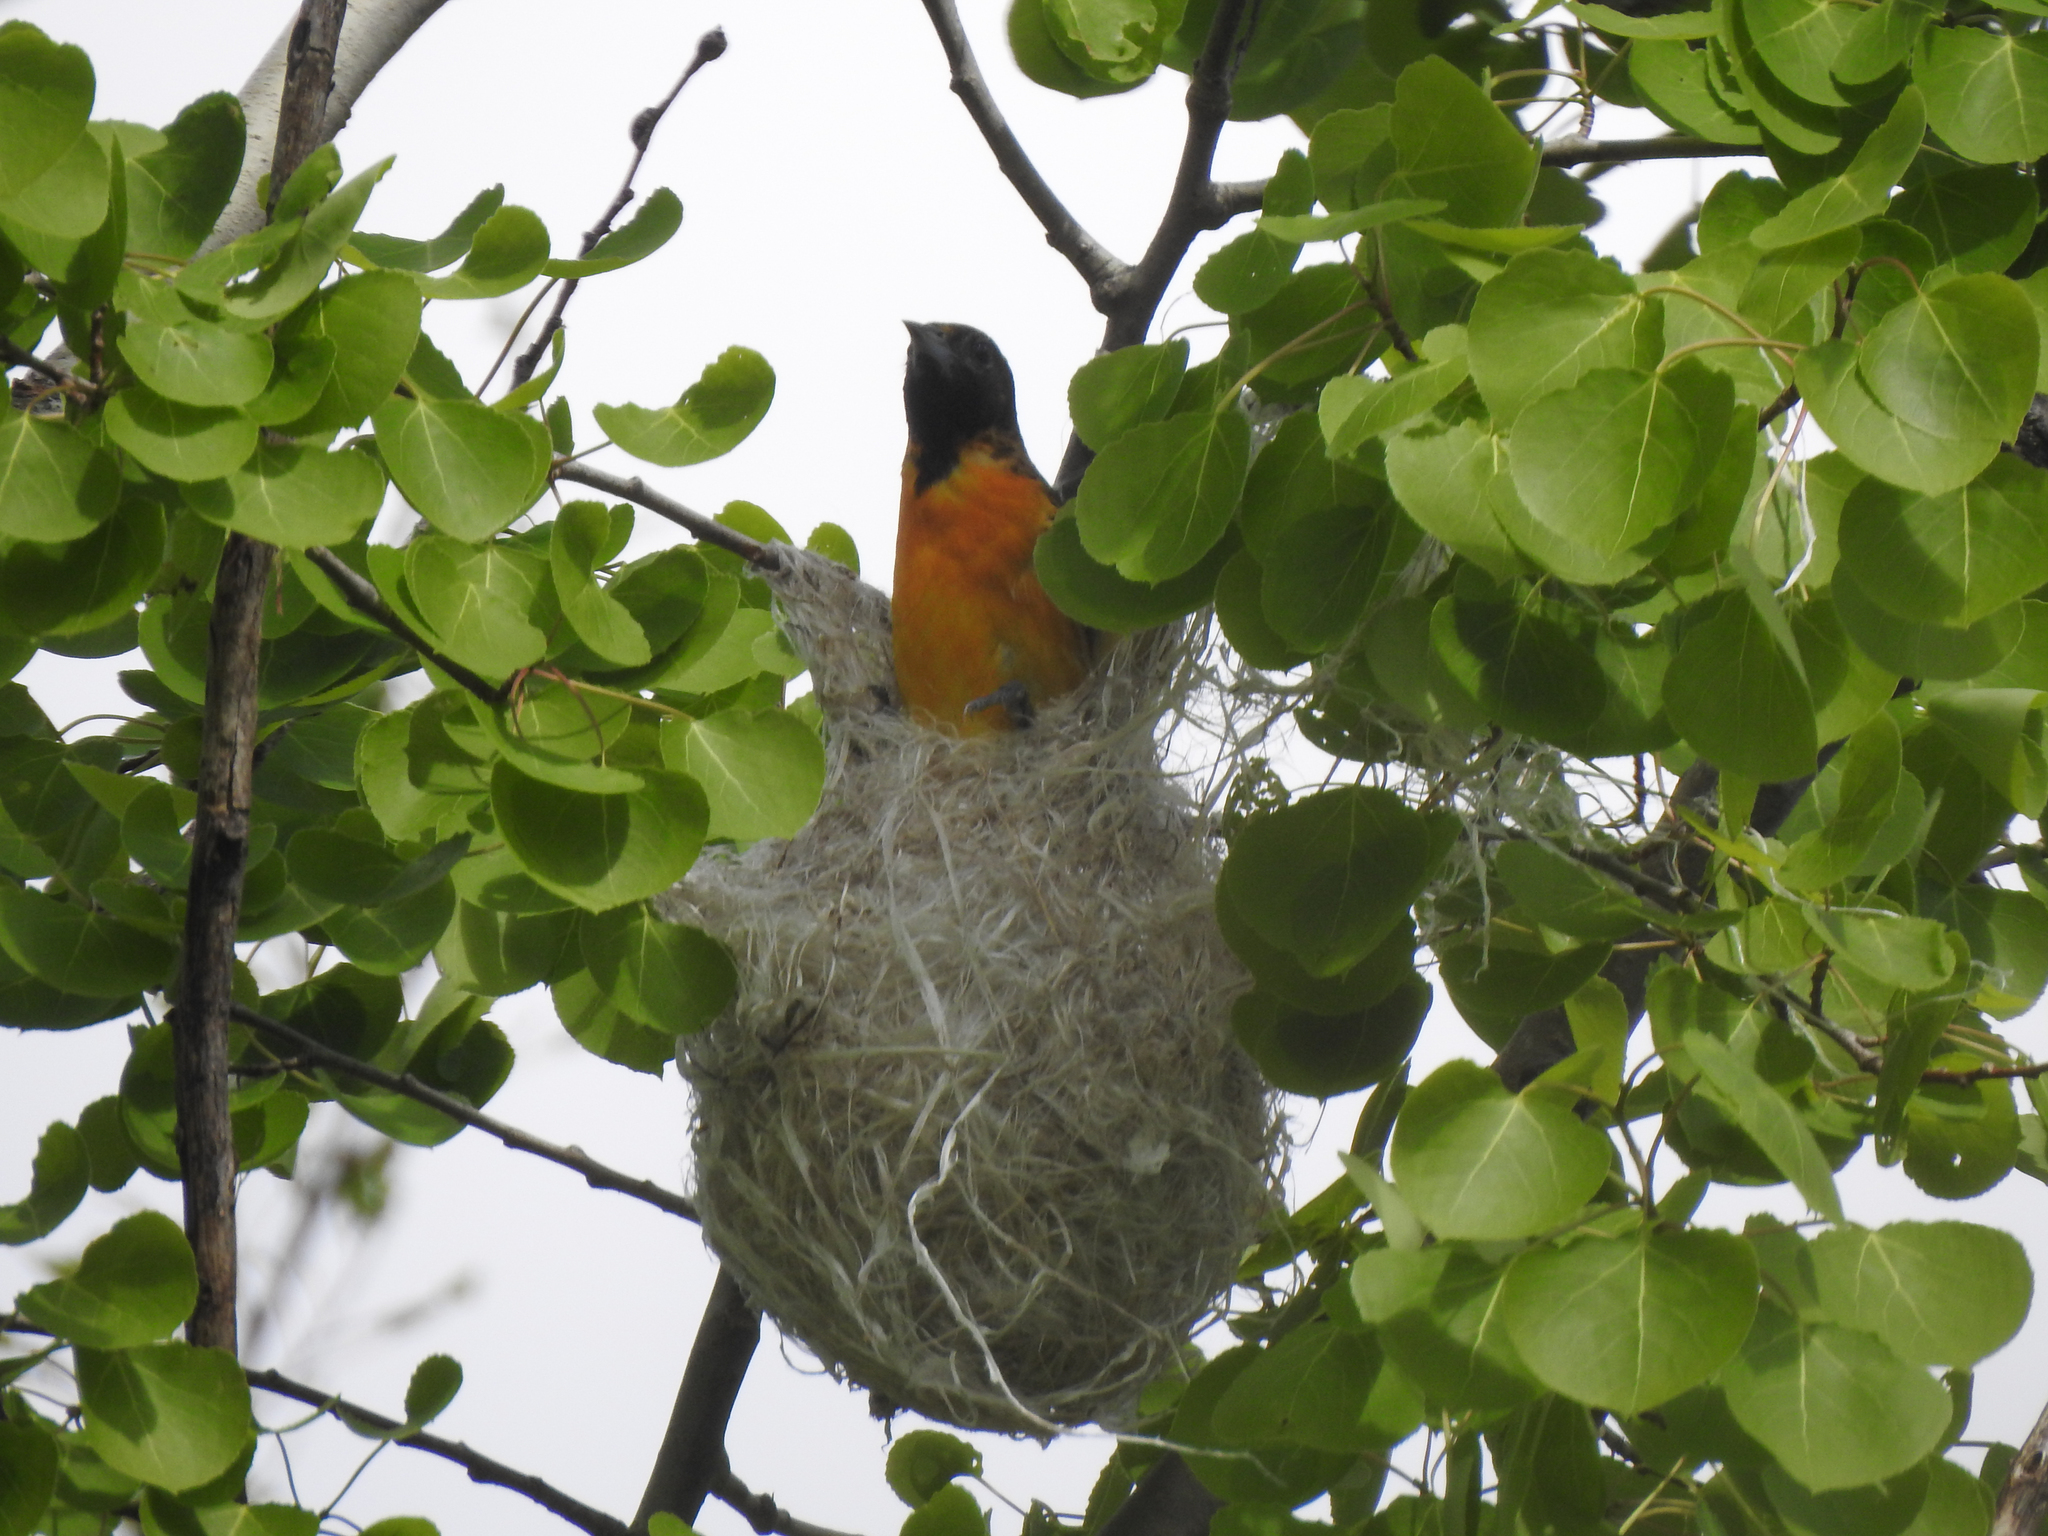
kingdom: Animalia
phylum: Chordata
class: Aves
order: Passeriformes
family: Icteridae
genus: Icterus
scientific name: Icterus galbula
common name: Baltimore oriole
